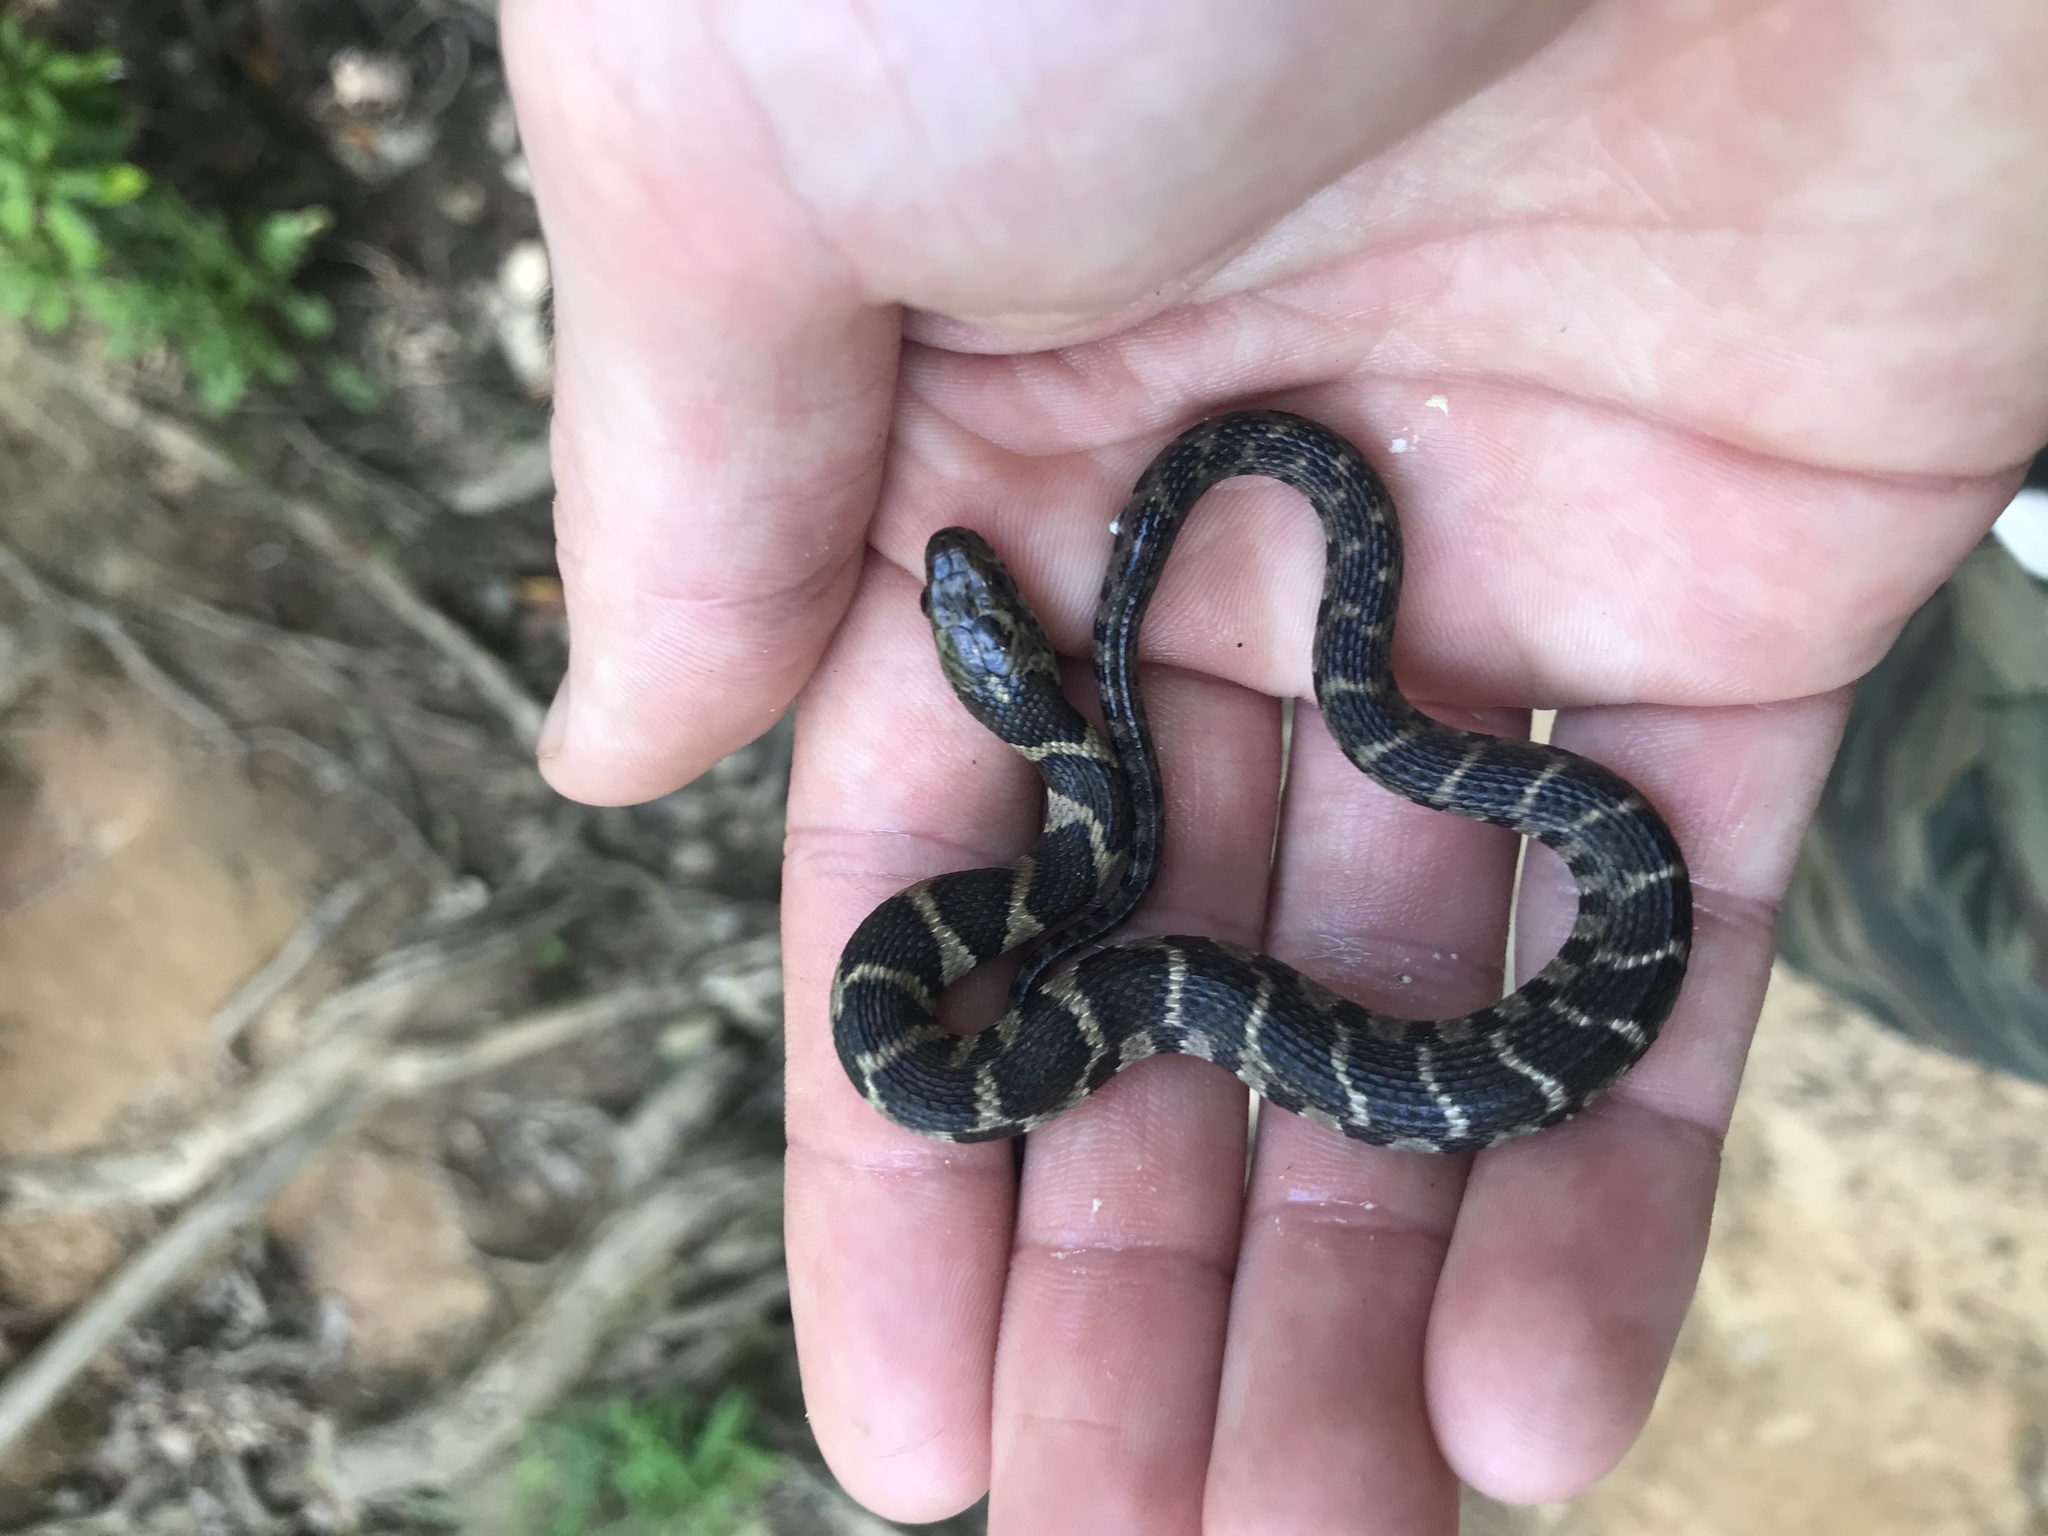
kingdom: Animalia
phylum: Chordata
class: Squamata
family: Colubridae
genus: Nerodia
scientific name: Nerodia sipedon
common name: Northern water snake
